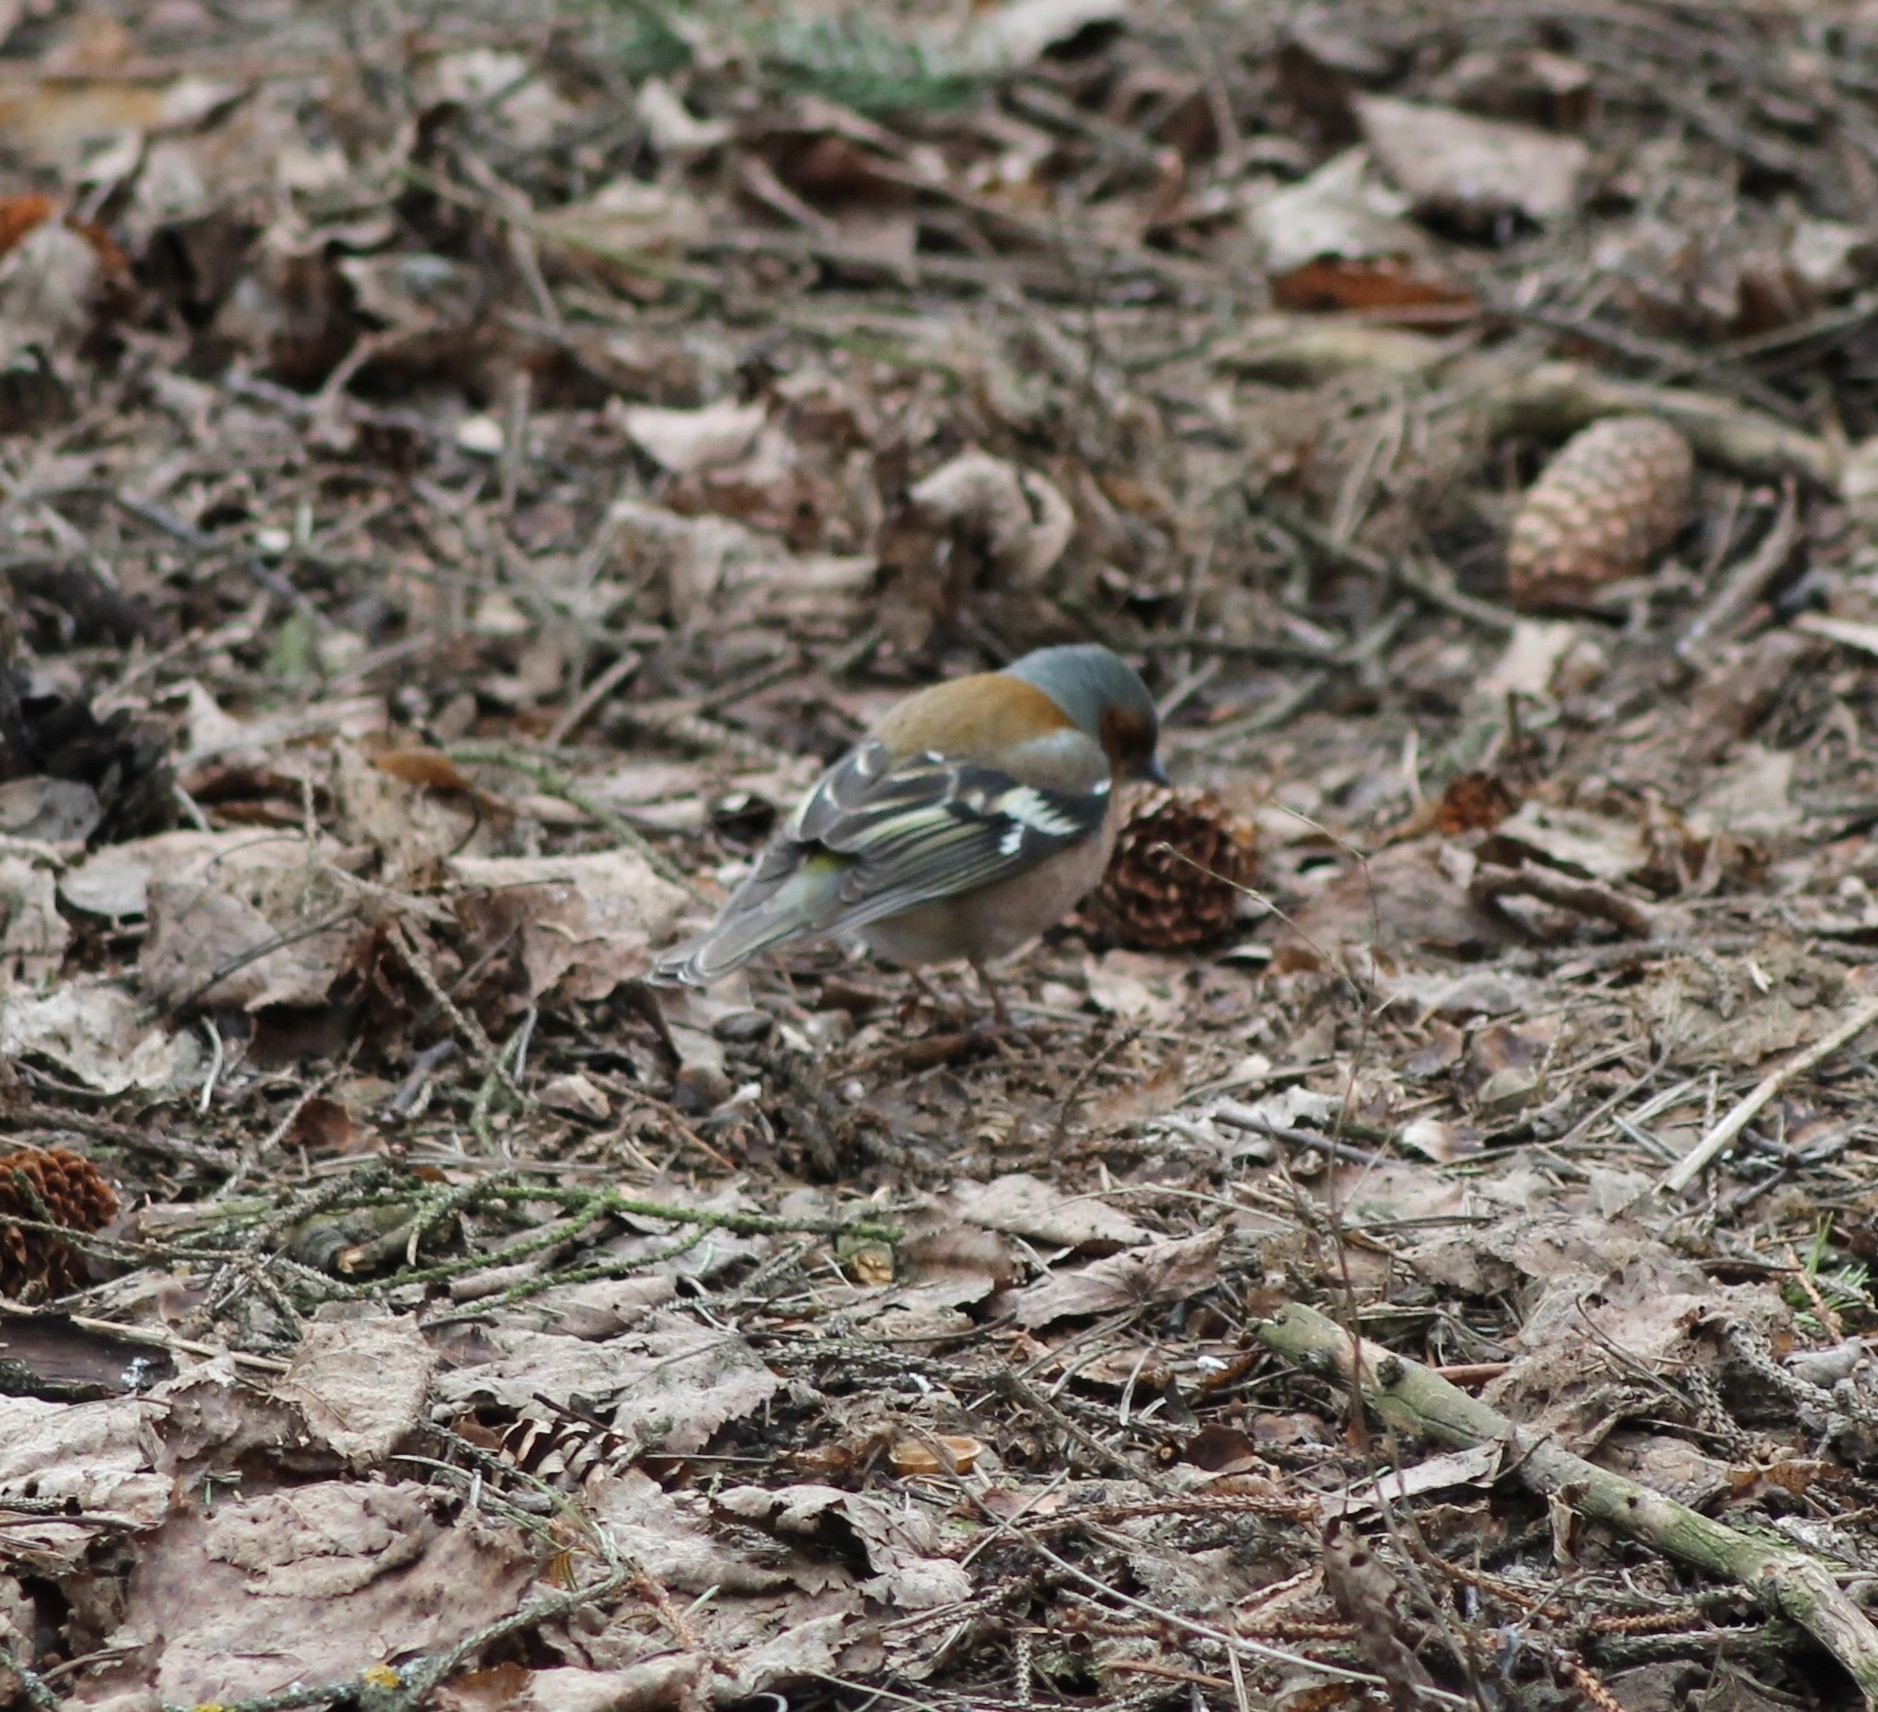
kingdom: Animalia
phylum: Chordata
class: Aves
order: Passeriformes
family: Fringillidae
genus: Fringilla
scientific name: Fringilla coelebs
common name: Common chaffinch
